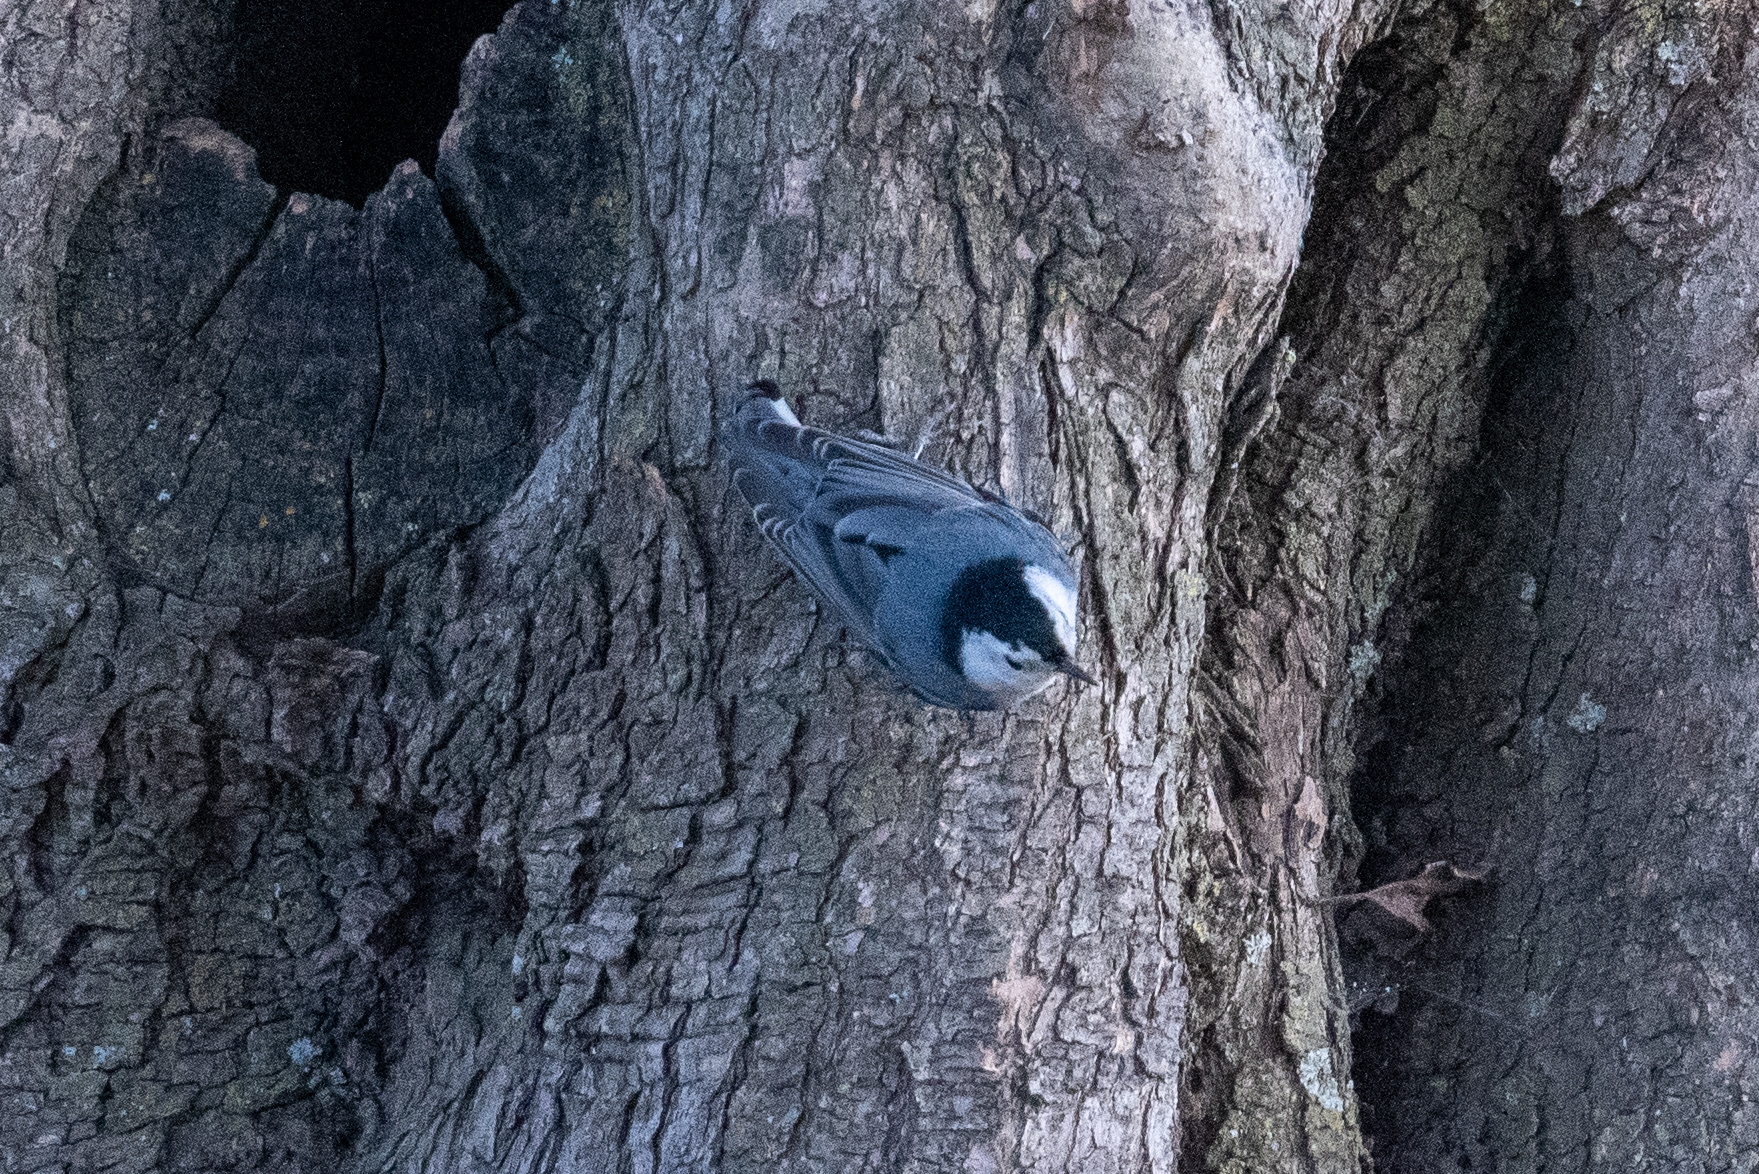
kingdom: Animalia
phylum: Chordata
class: Aves
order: Passeriformes
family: Sittidae
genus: Sitta
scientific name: Sitta carolinensis
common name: White-breasted nuthatch
